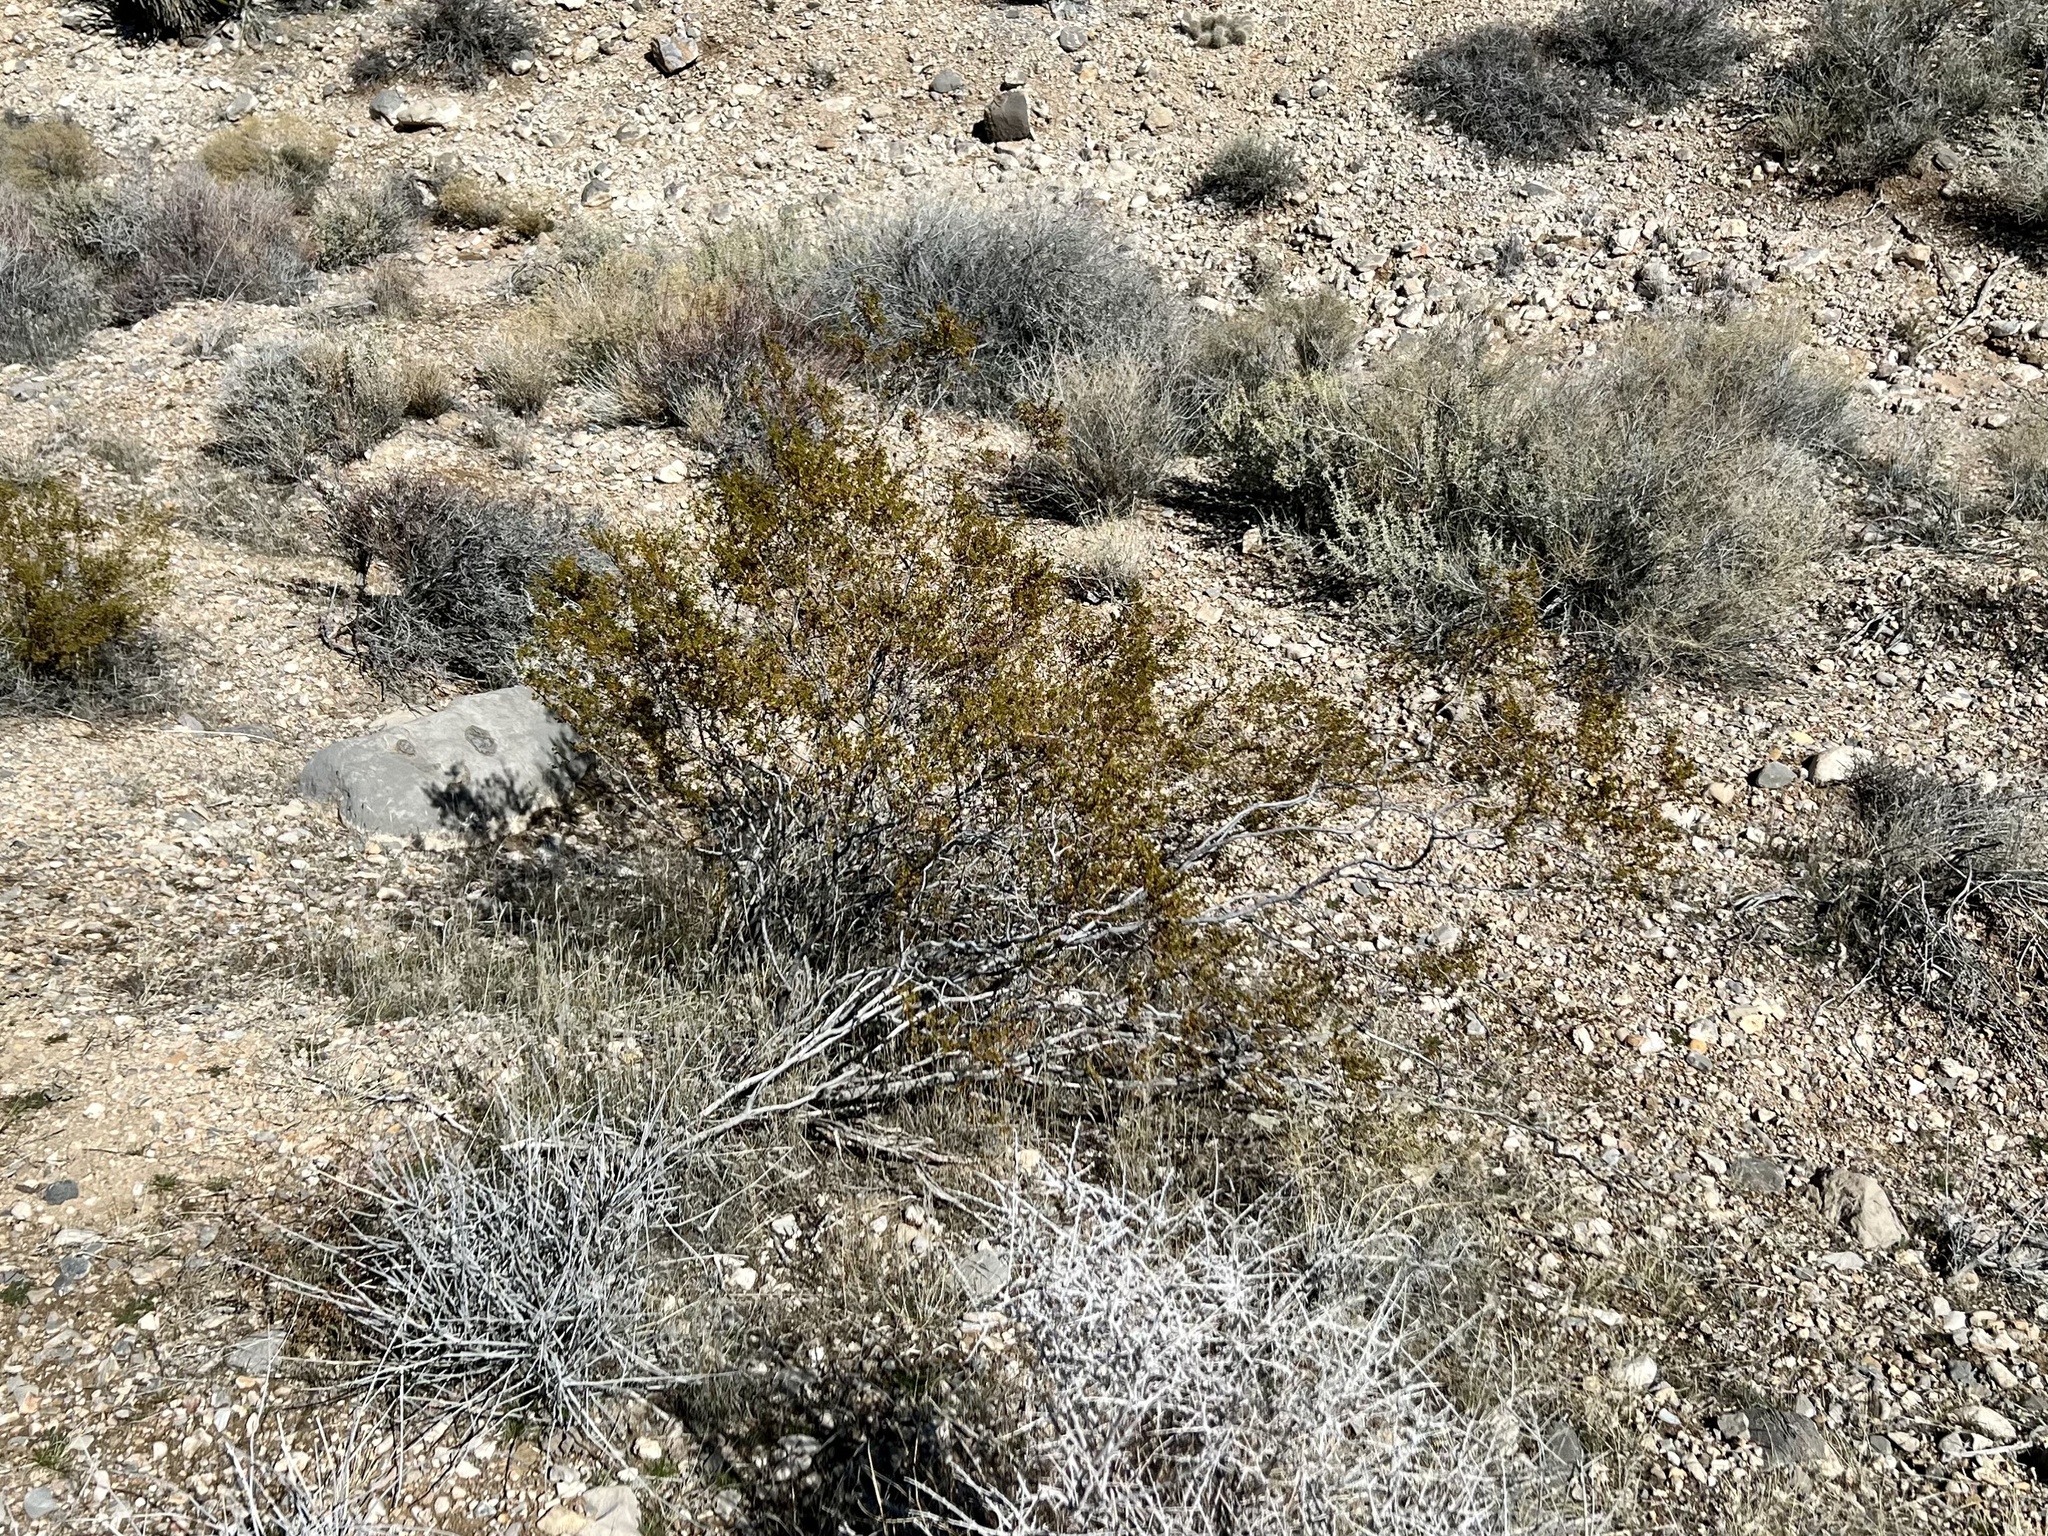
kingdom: Plantae
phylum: Tracheophyta
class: Magnoliopsida
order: Zygophyllales
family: Zygophyllaceae
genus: Larrea
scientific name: Larrea tridentata
